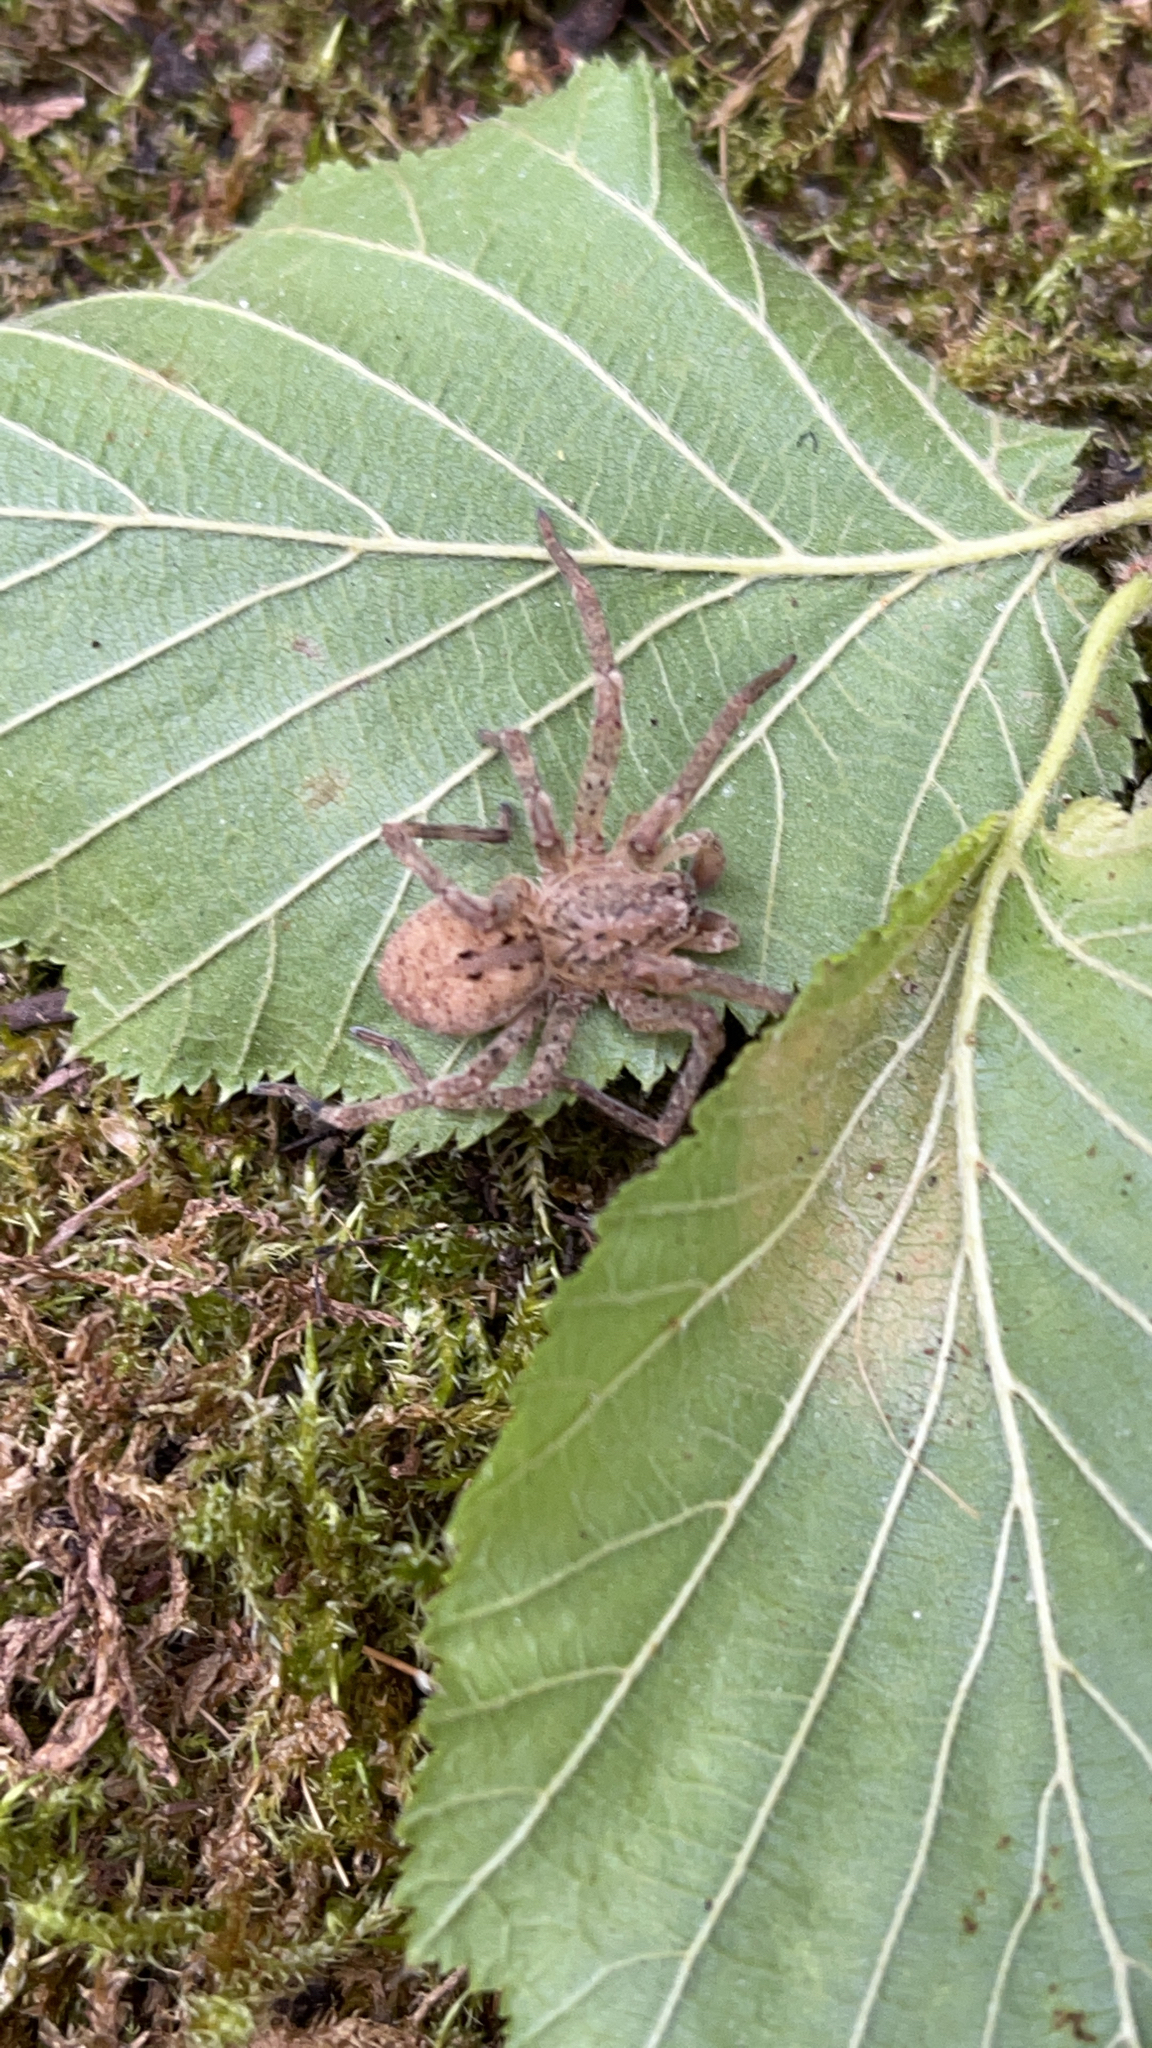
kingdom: Animalia
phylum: Arthropoda
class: Arachnida
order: Araneae
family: Zoropsidae
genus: Zoropsis
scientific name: Zoropsis spinimana
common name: Zoropsid spider
